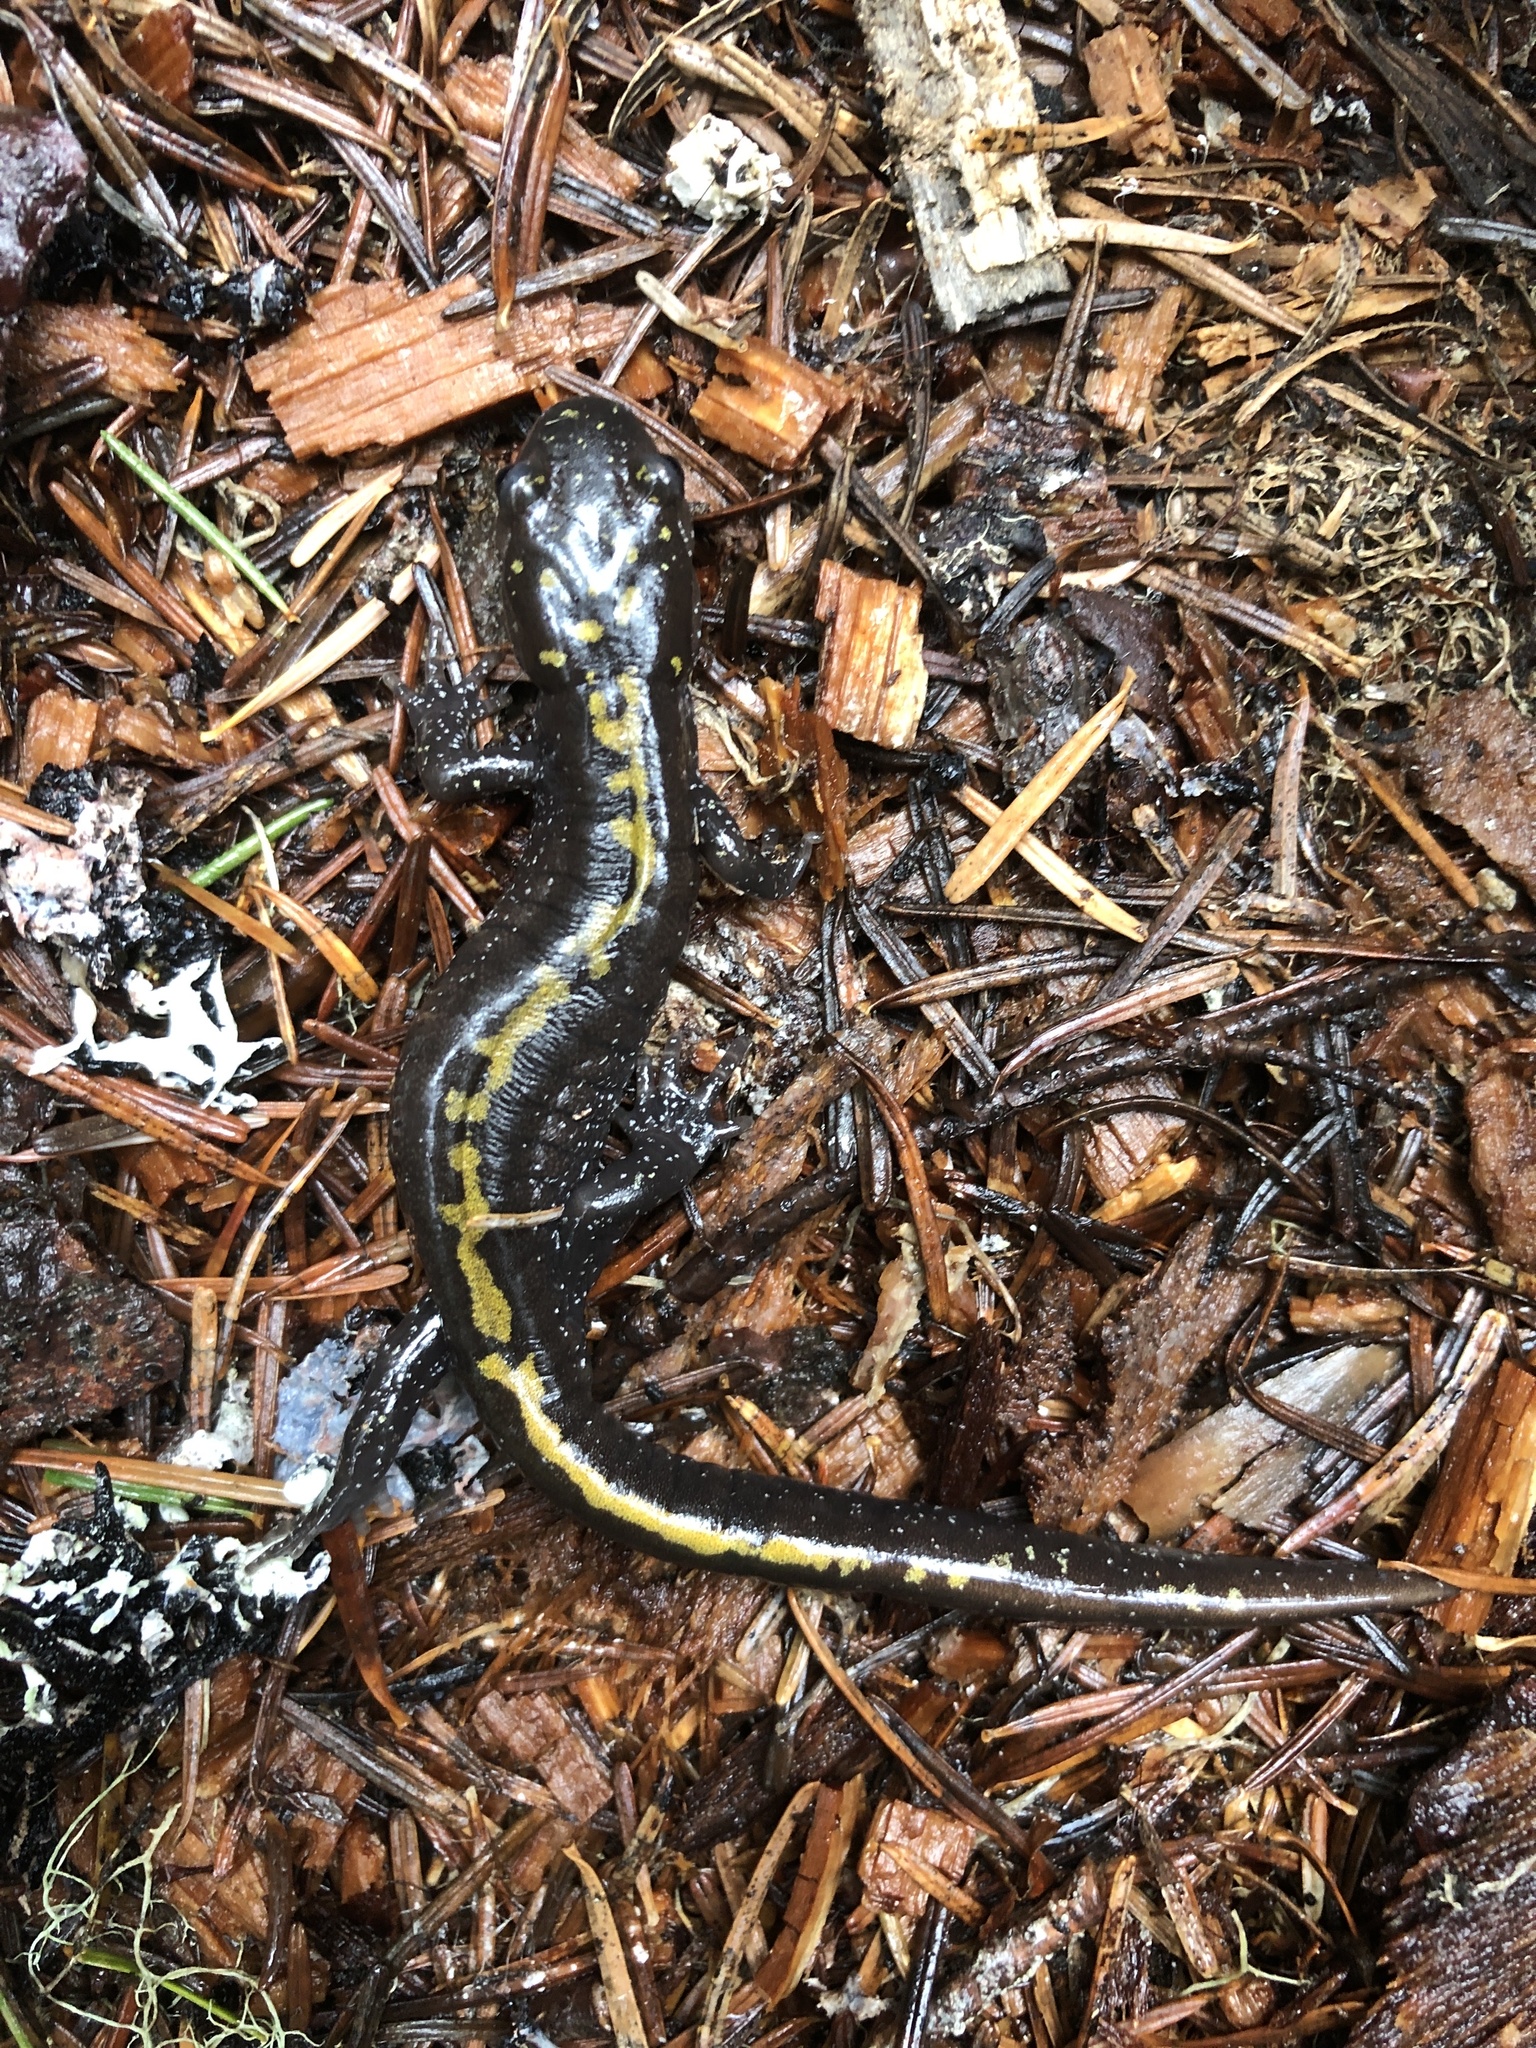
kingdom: Animalia
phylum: Chordata
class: Amphibia
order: Caudata
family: Ambystomatidae
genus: Ambystoma
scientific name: Ambystoma macrodactylum
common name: Long-toed salamander
